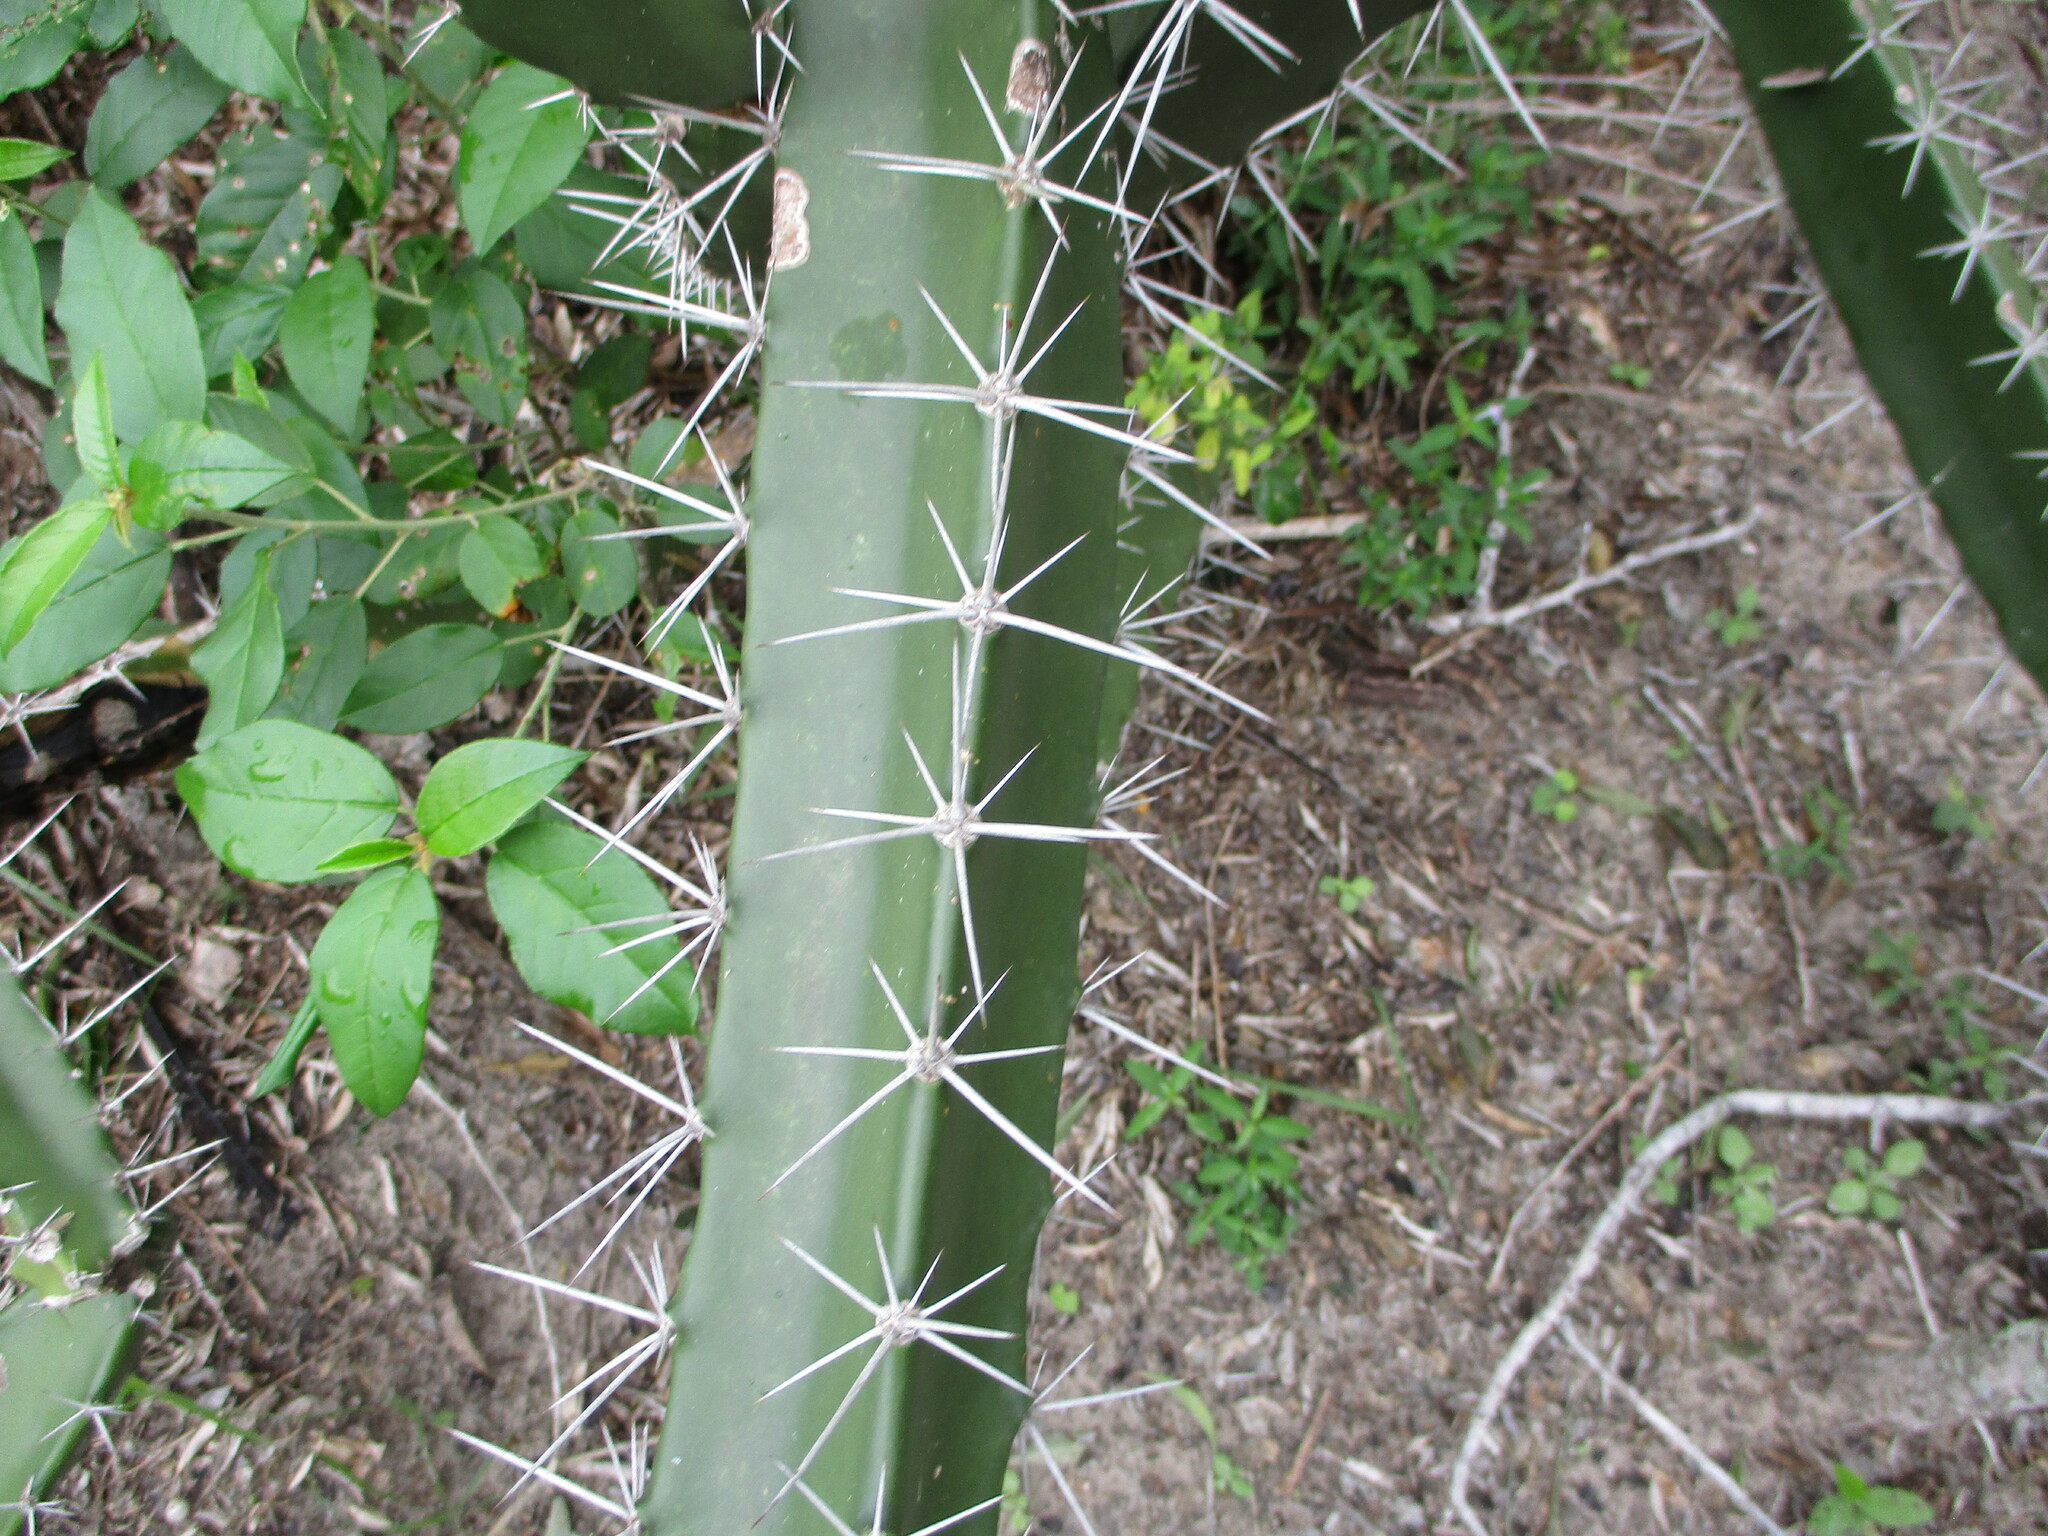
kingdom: Plantae
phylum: Tracheophyta
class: Magnoliopsida
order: Caryophyllales
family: Cactaceae
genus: Acanthocereus
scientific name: Acanthocereus tetragonus
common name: Triangle cactus
